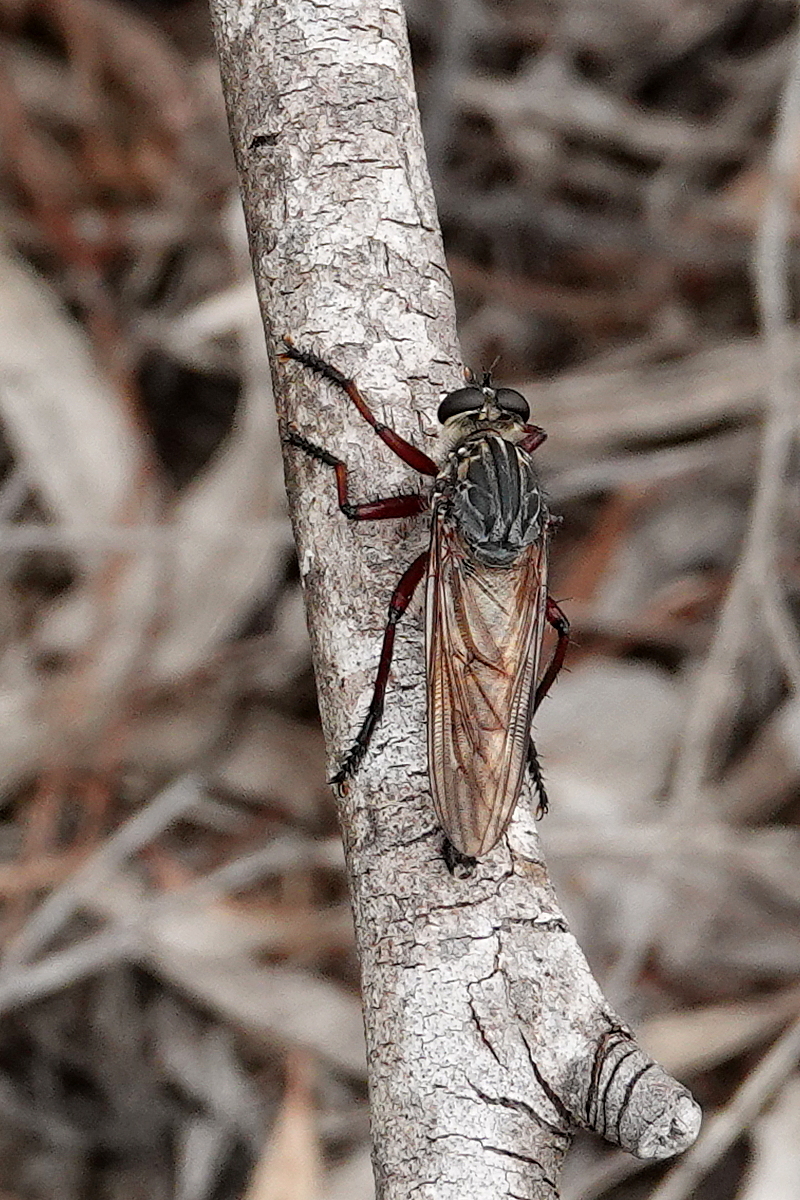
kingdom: Animalia
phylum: Arthropoda
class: Insecta
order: Diptera
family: Asilidae
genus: Colepia
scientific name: Colepia malleola
